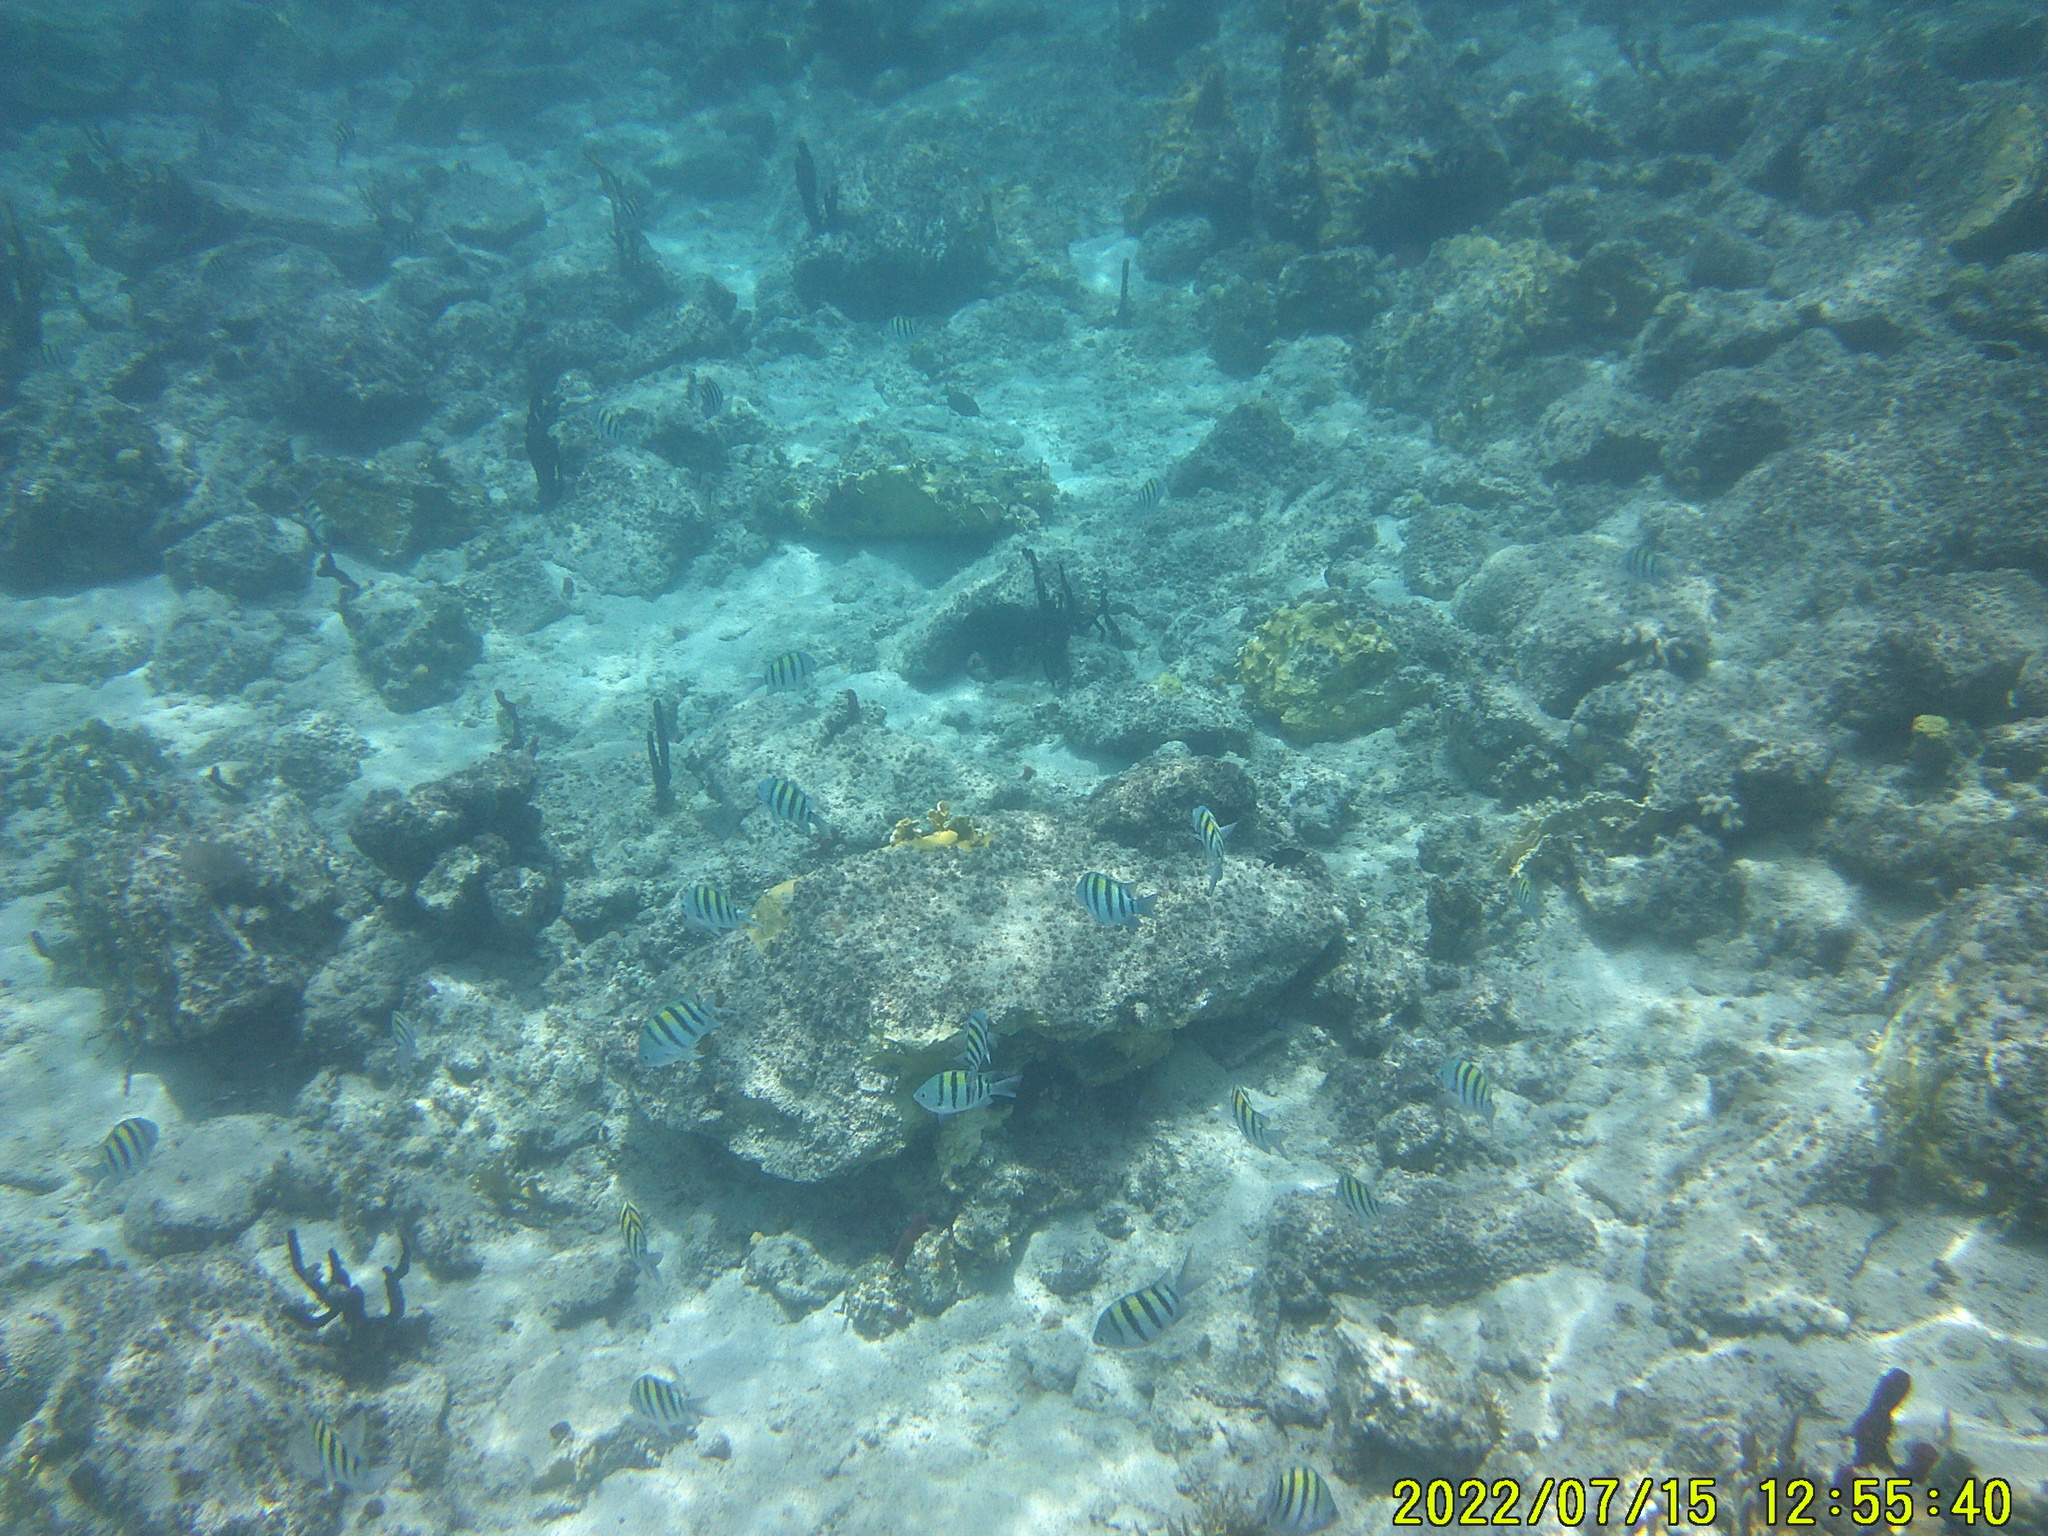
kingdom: Animalia
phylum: Chordata
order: Perciformes
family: Pomacentridae
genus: Abudefduf
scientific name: Abudefduf saxatilis
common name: Sergeant major
